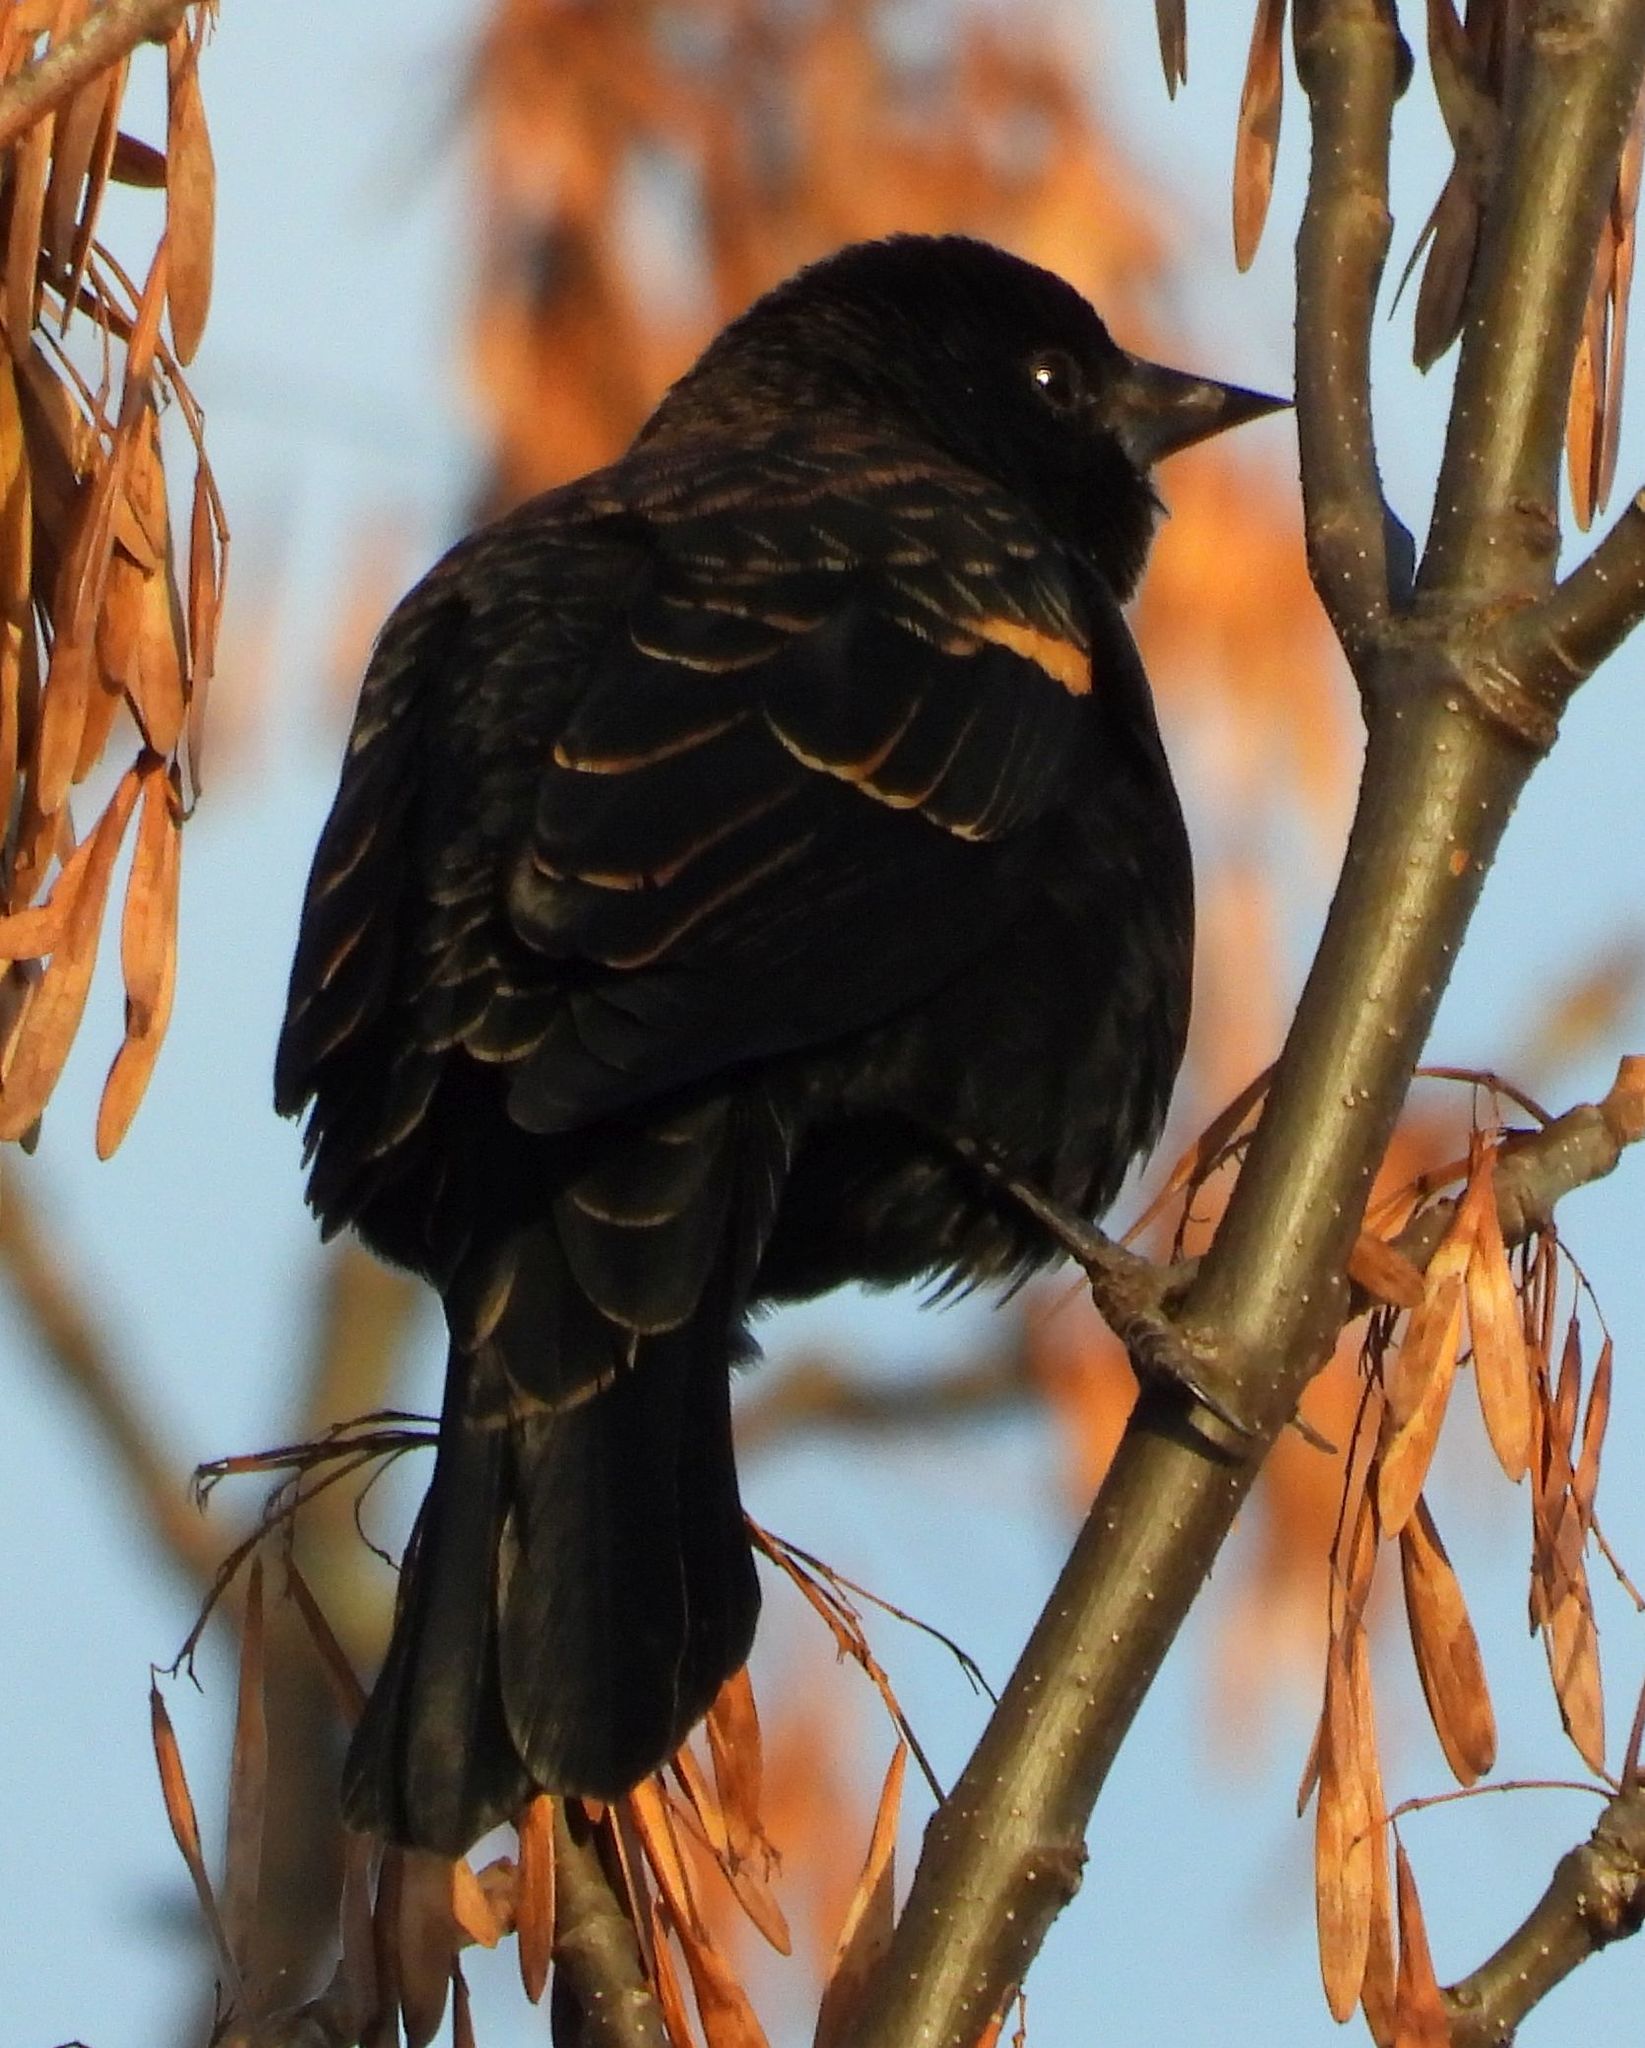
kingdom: Animalia
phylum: Chordata
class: Aves
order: Passeriformes
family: Icteridae
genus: Agelaius
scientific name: Agelaius phoeniceus
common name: Red-winged blackbird
